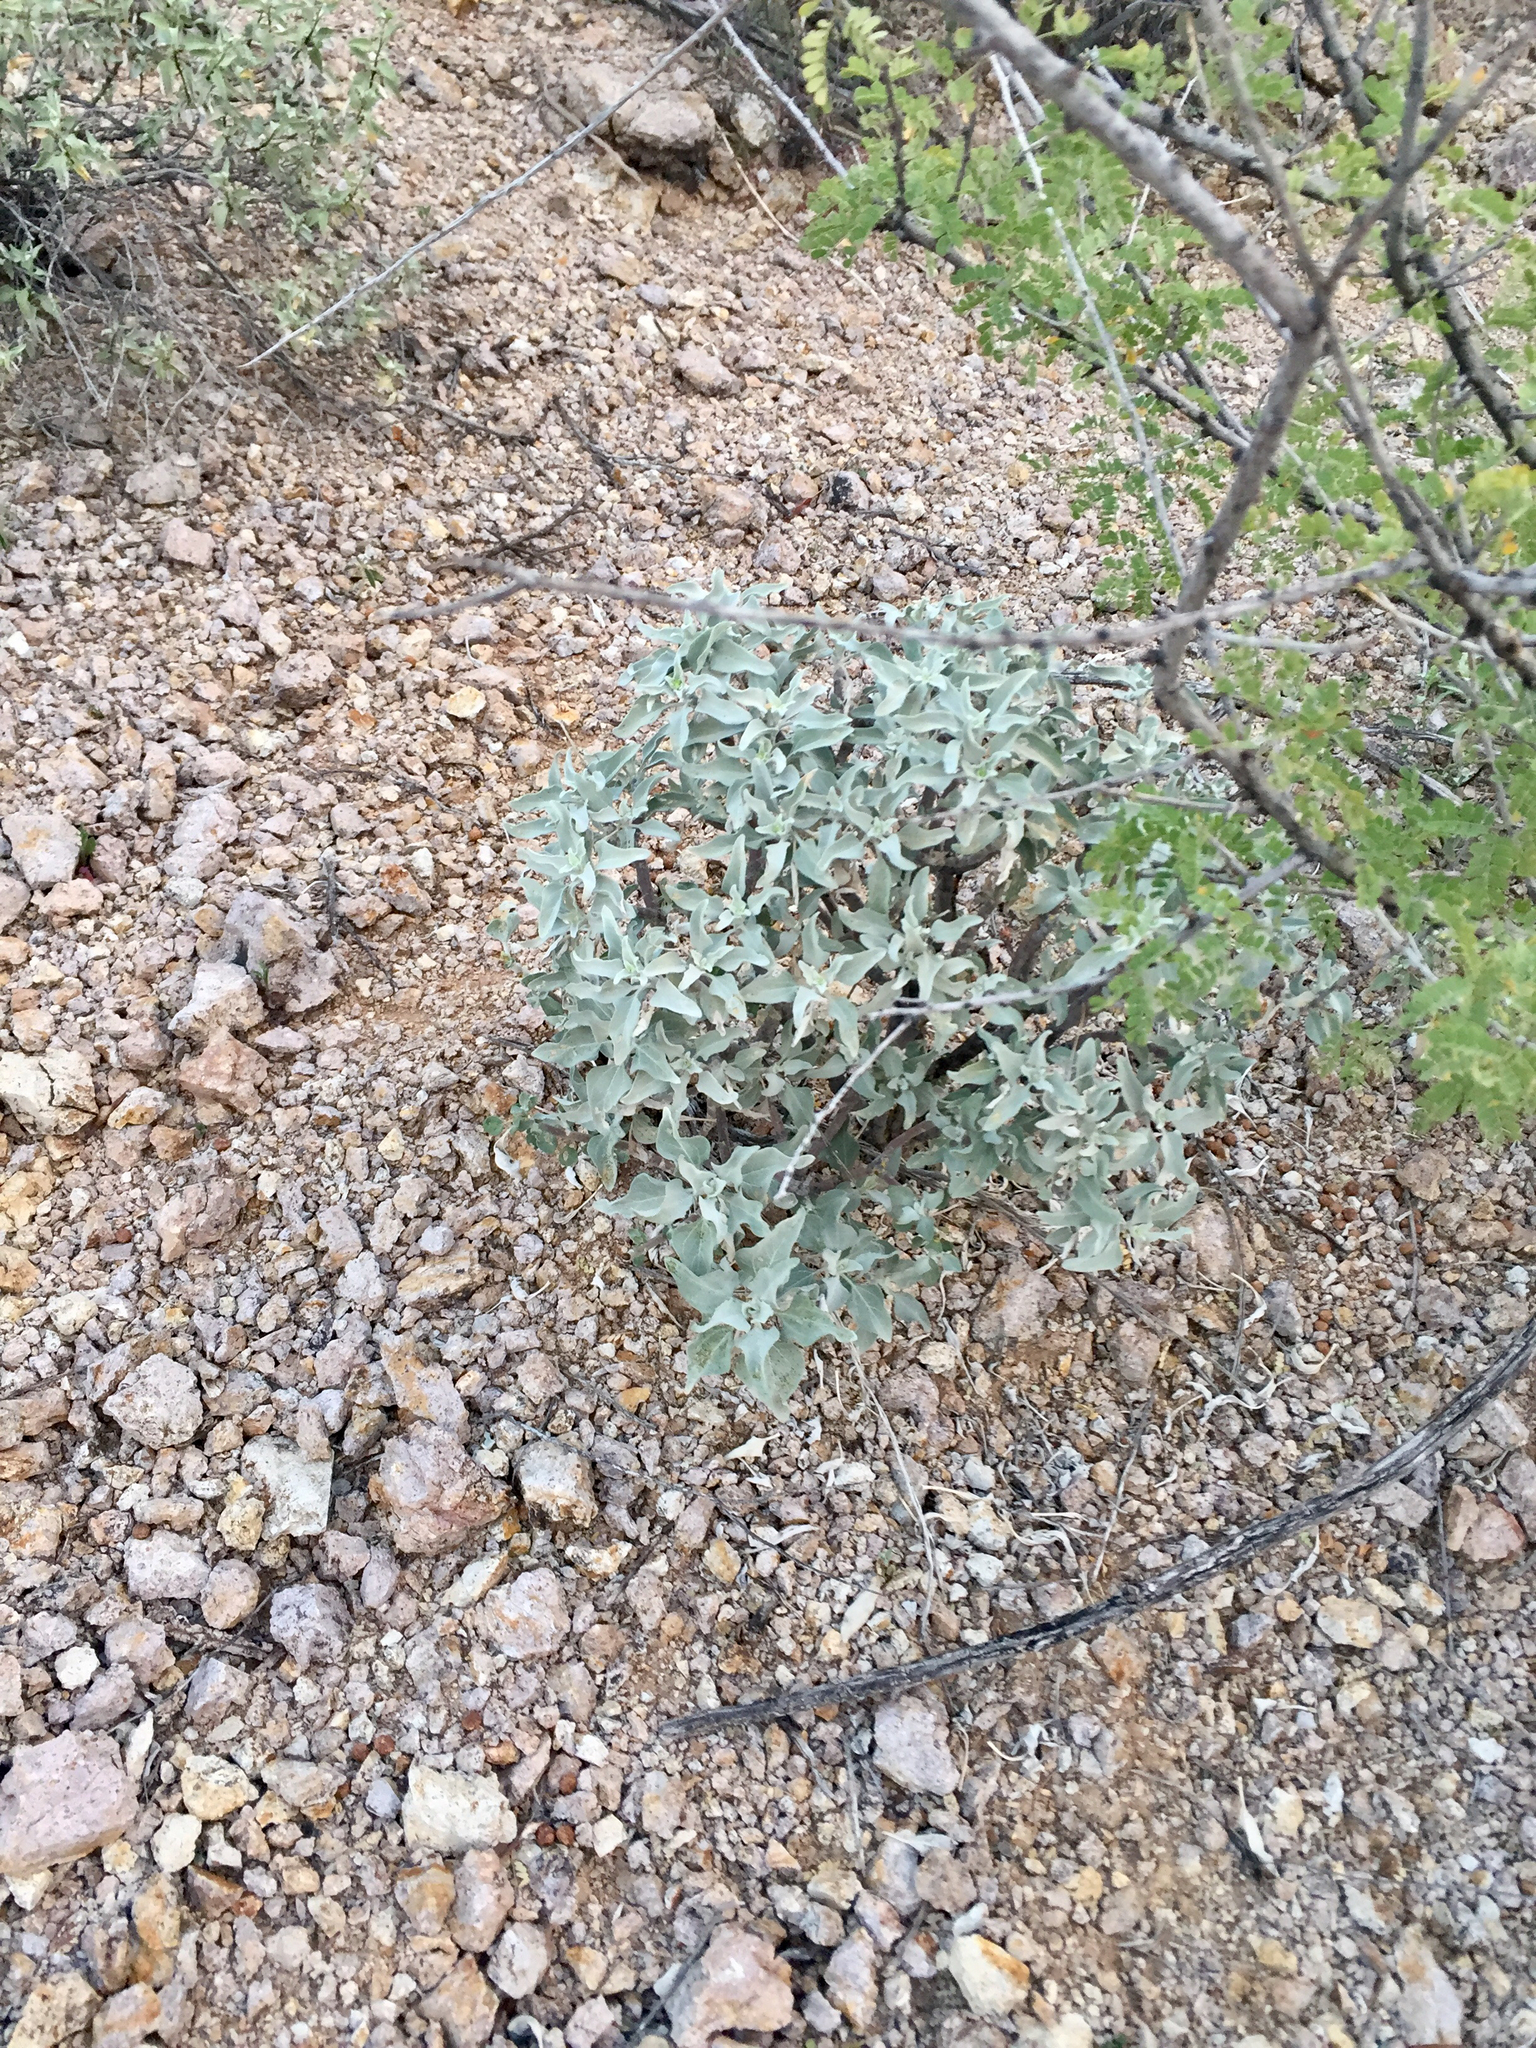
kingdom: Plantae
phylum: Tracheophyta
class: Magnoliopsida
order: Asterales
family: Asteraceae
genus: Encelia
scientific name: Encelia farinosa
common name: Brittlebush
